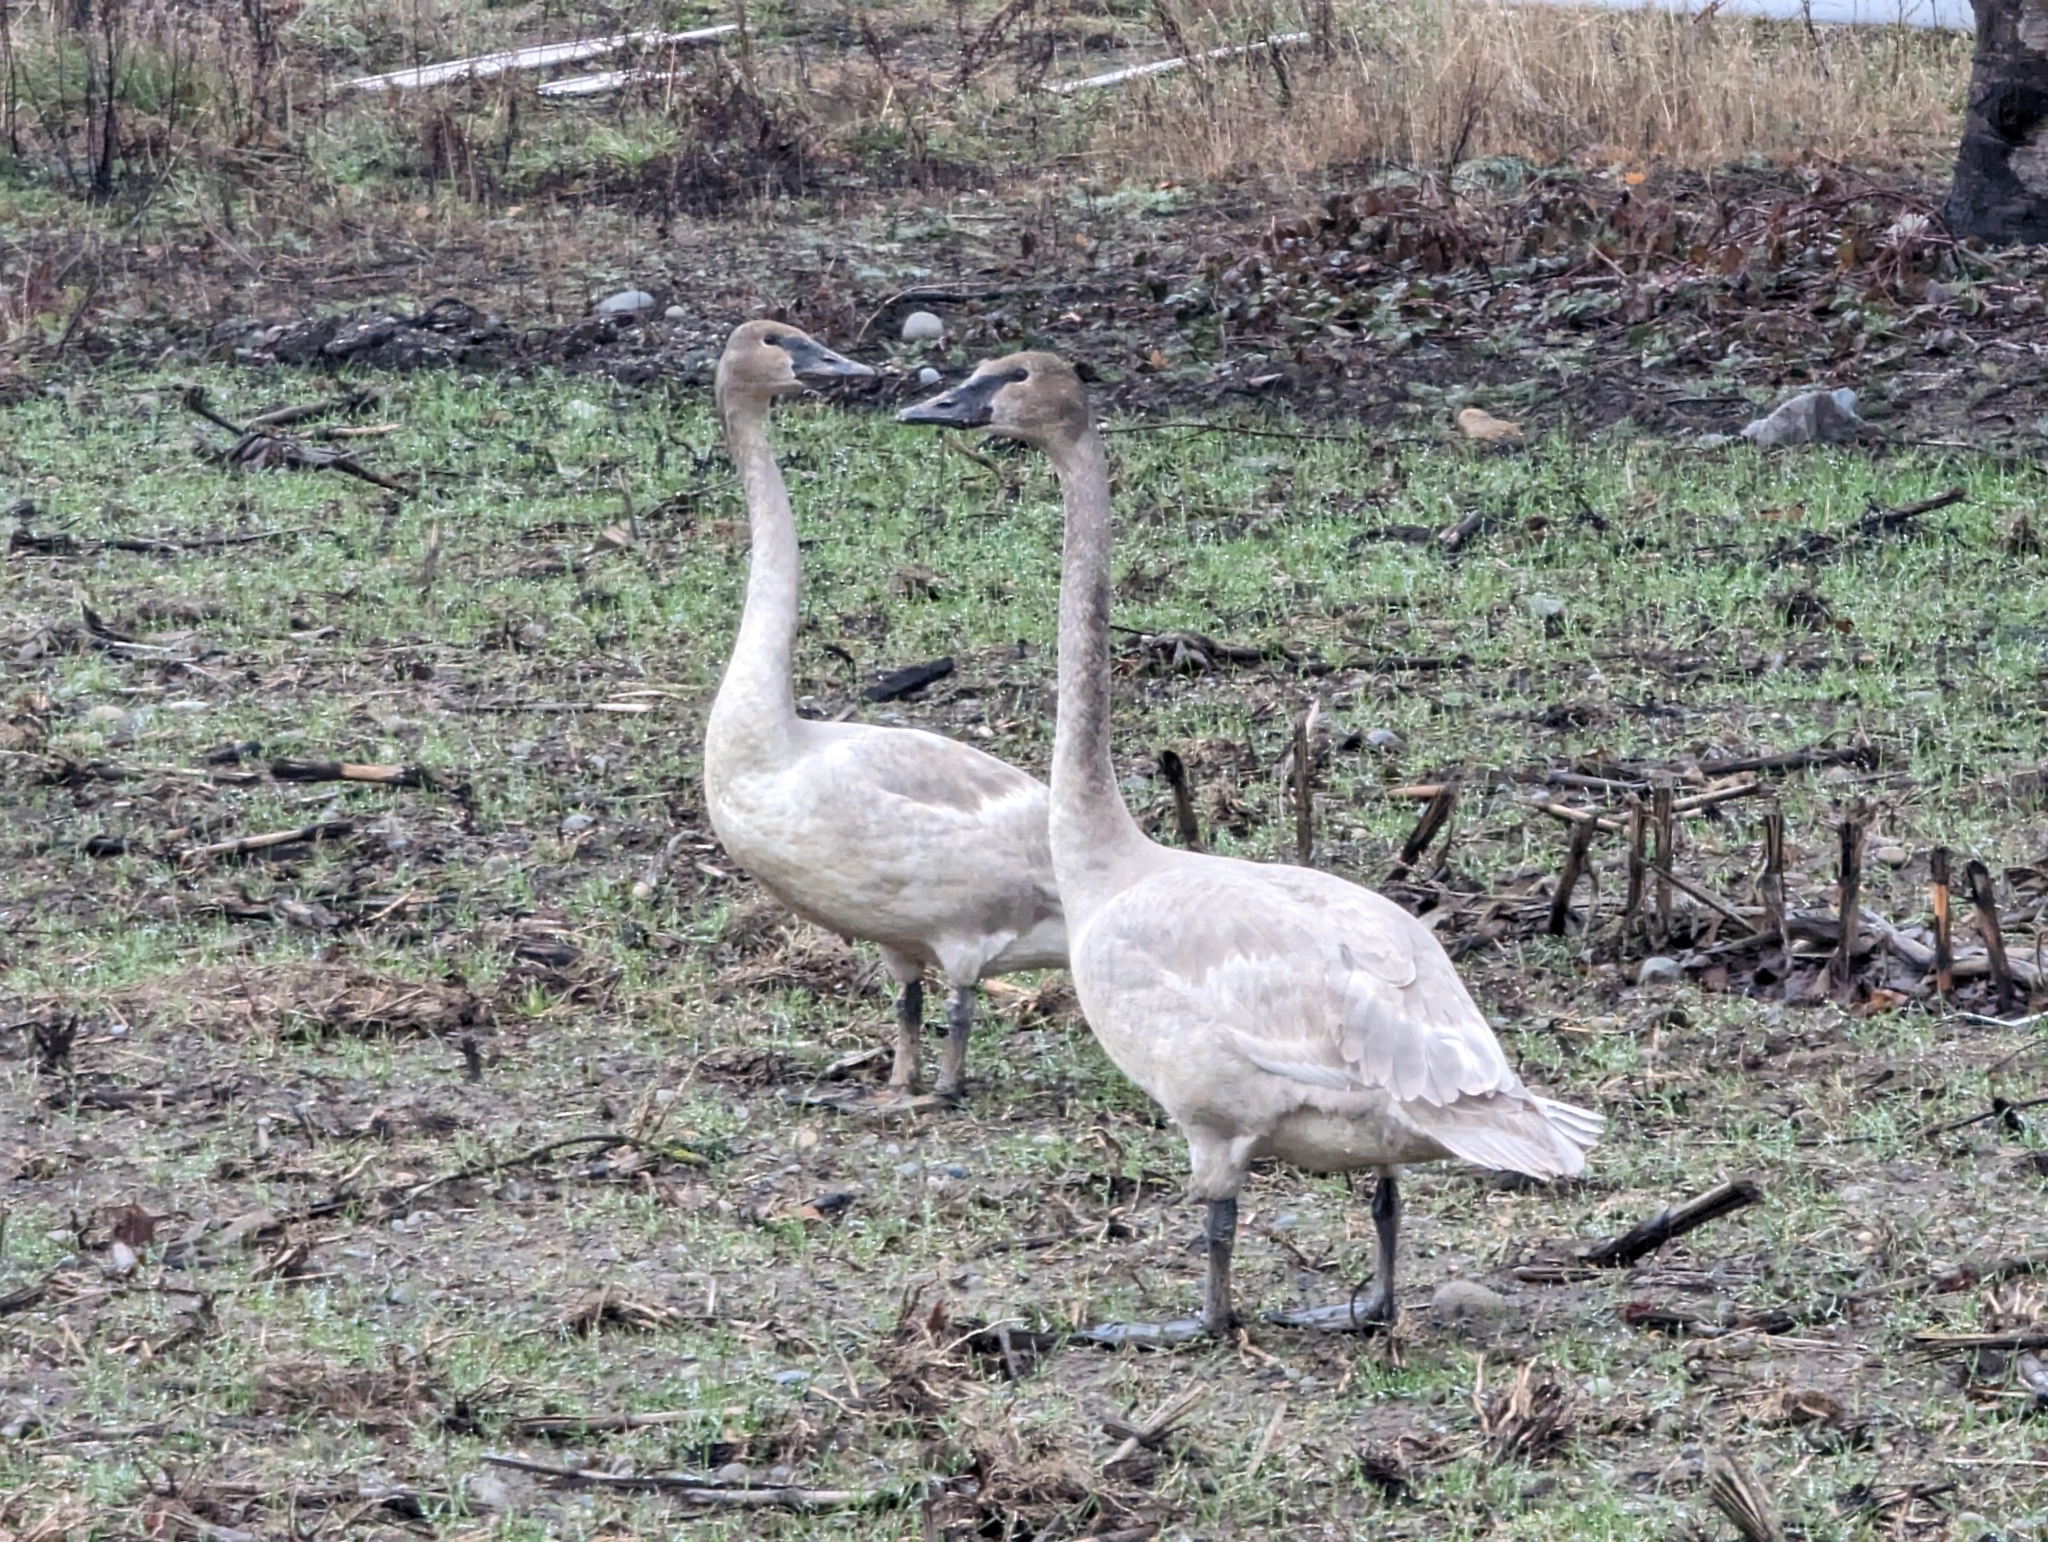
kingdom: Animalia
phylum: Chordata
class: Aves
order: Anseriformes
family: Anatidae
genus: Cygnus
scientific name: Cygnus buccinator
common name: Trumpeter swan
